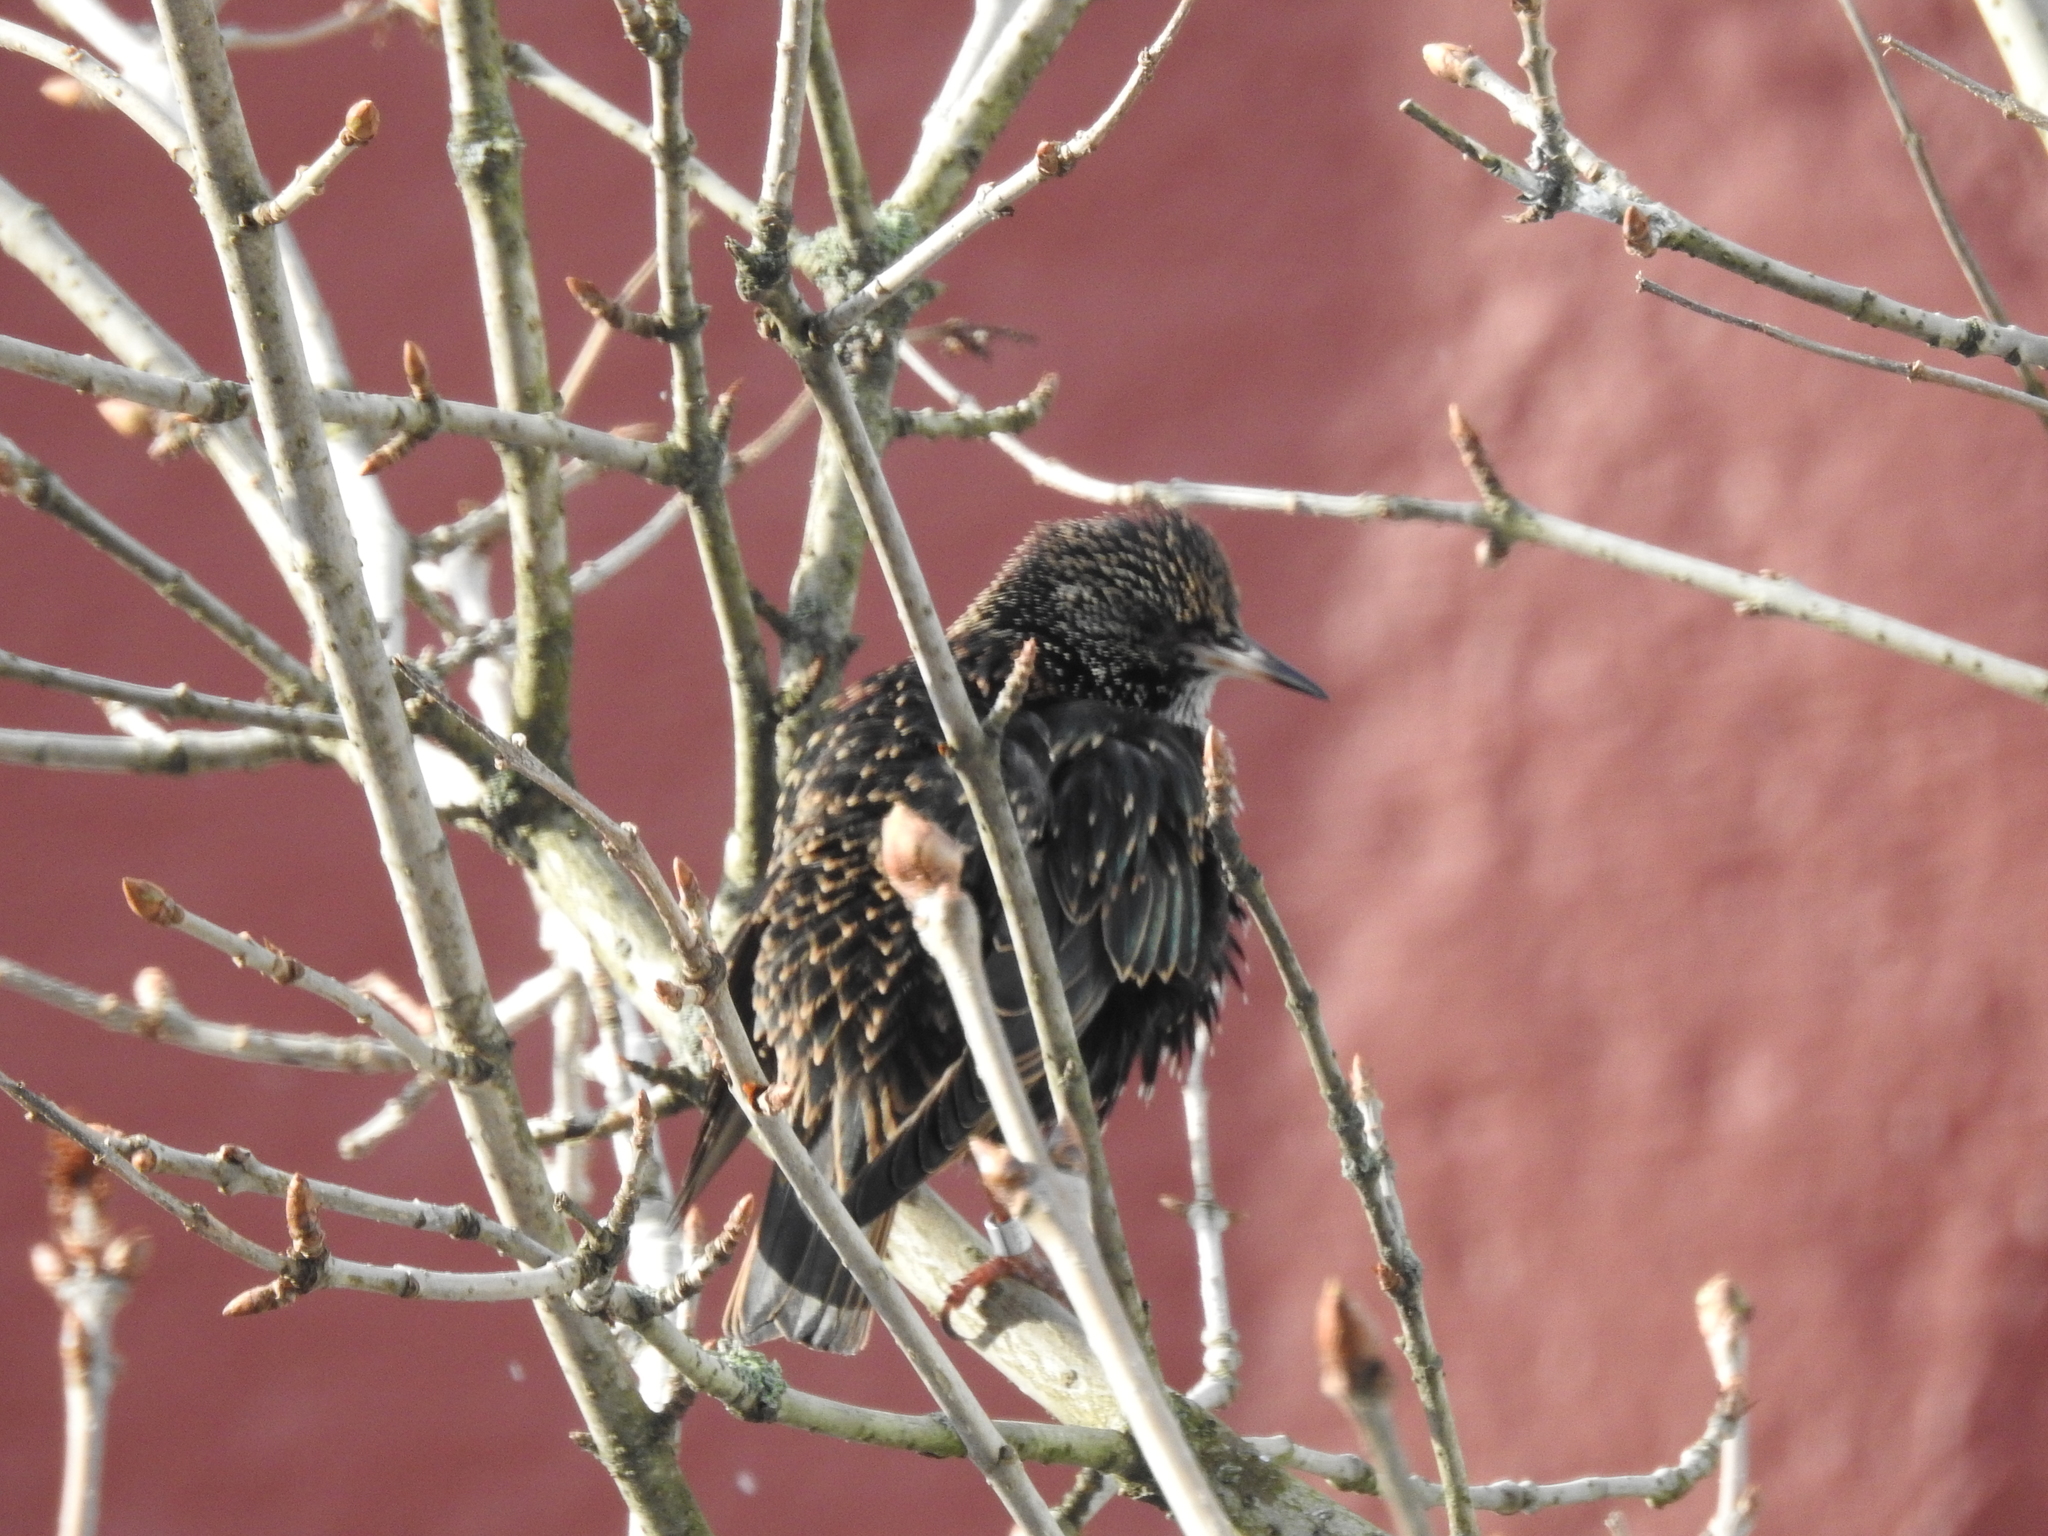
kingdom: Animalia
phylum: Chordata
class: Aves
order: Passeriformes
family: Sturnidae
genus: Sturnus
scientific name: Sturnus vulgaris
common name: Common starling
